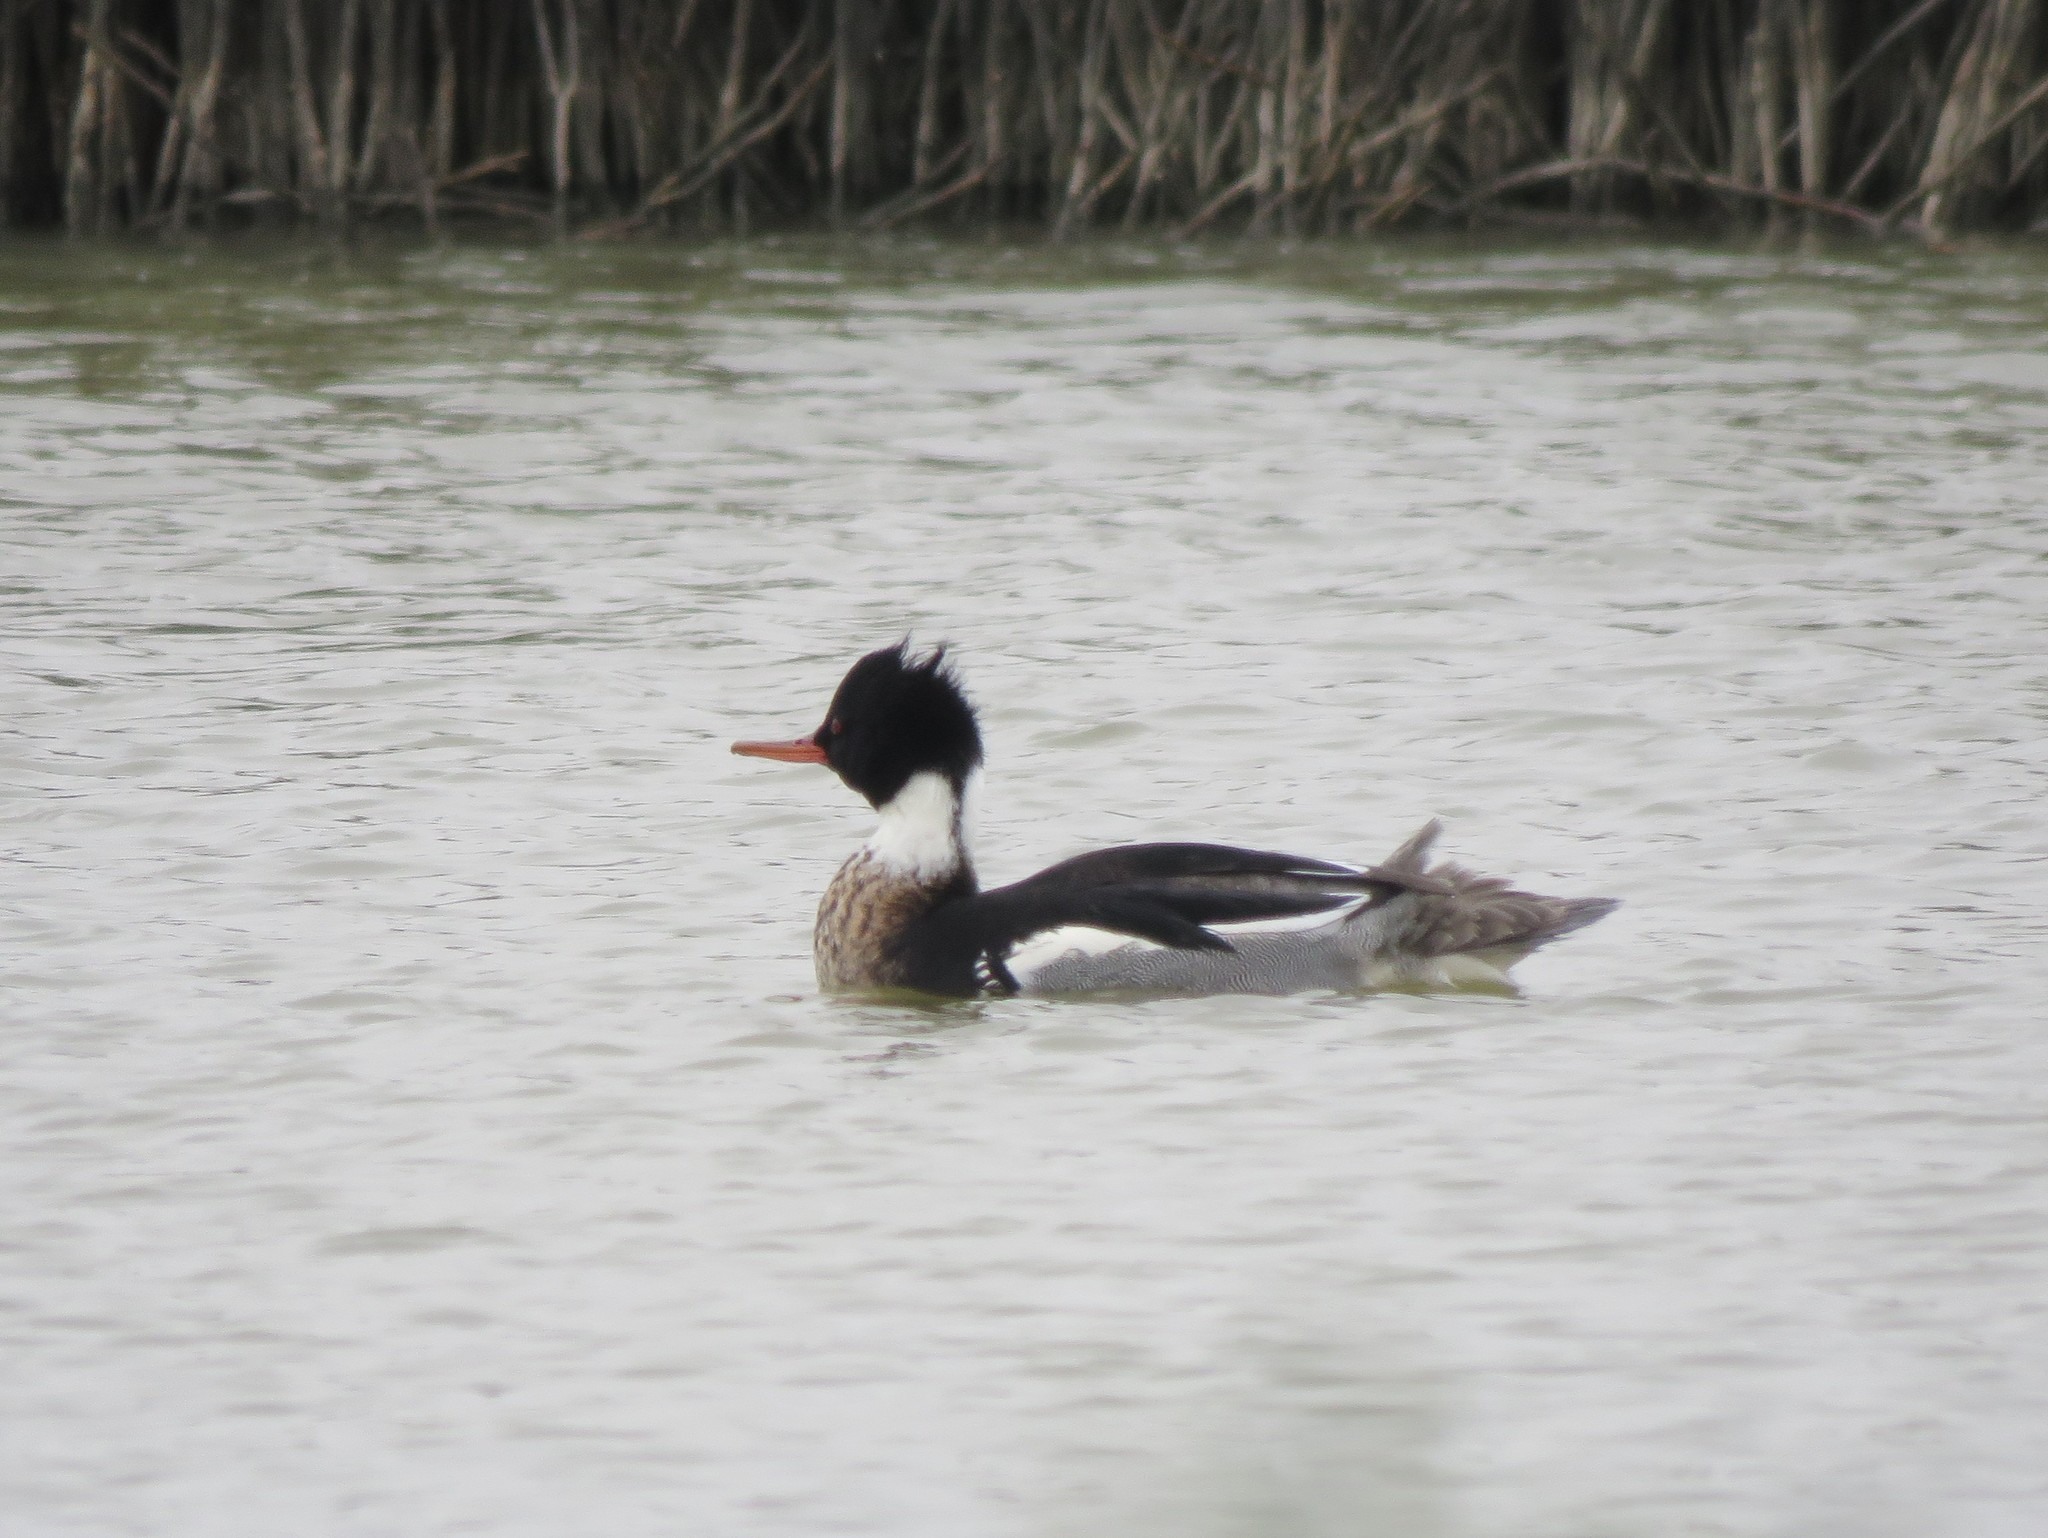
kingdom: Animalia
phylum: Chordata
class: Aves
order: Anseriformes
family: Anatidae
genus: Mergus
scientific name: Mergus serrator
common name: Red-breasted merganser
